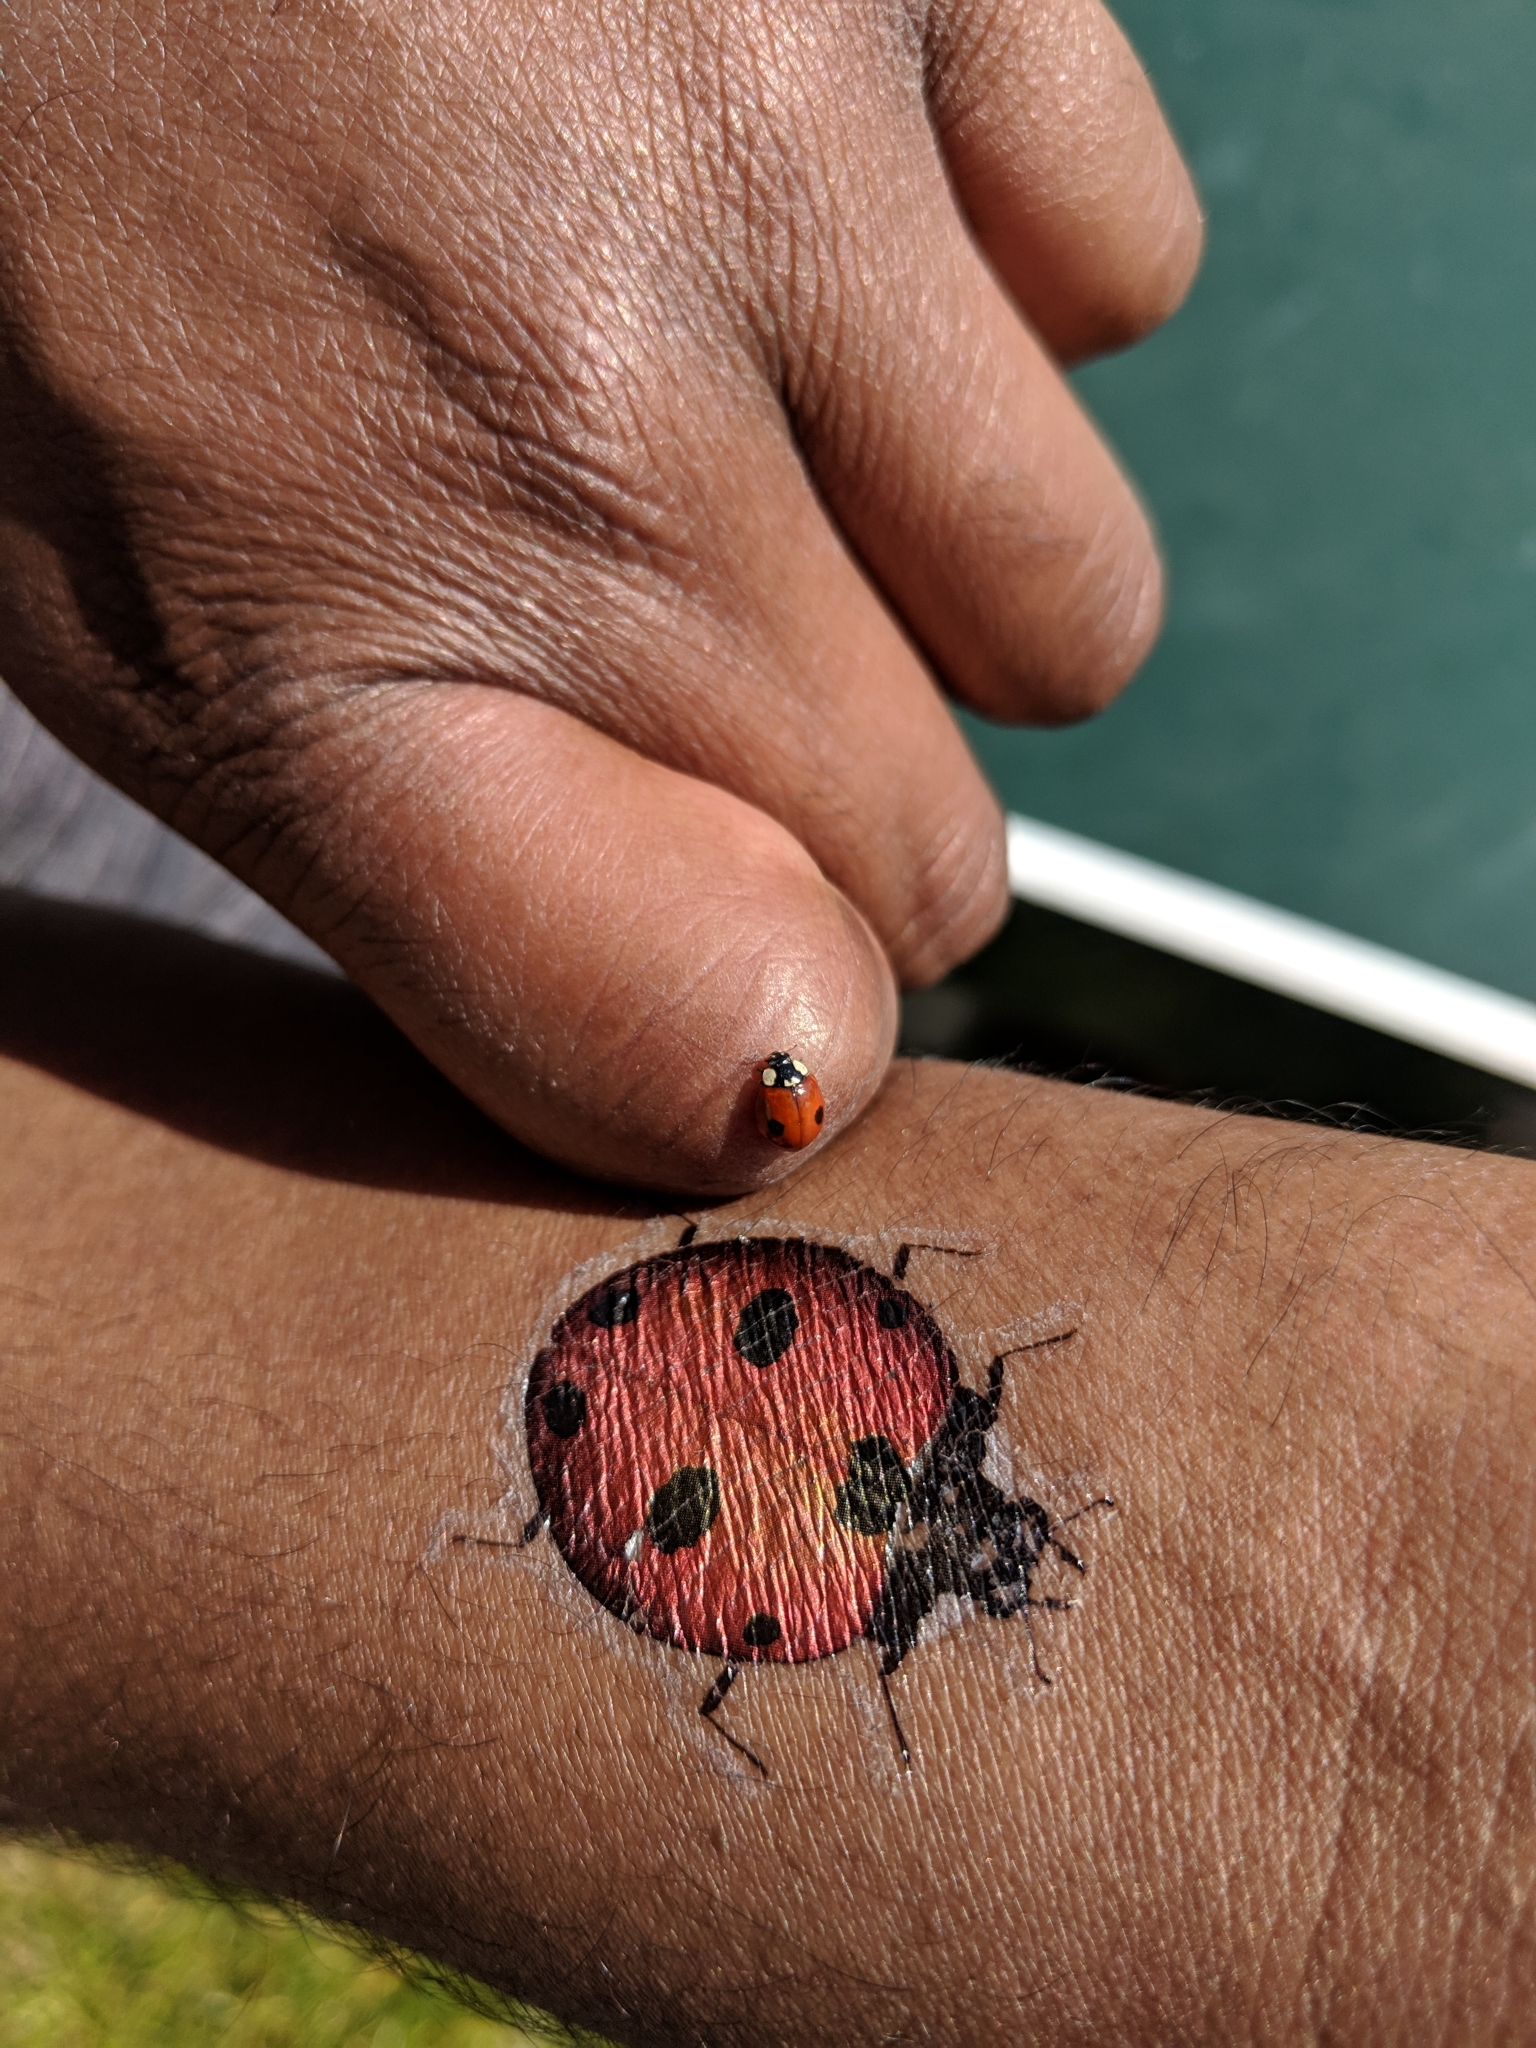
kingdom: Animalia
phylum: Arthropoda
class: Insecta
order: Coleoptera
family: Coccinellidae
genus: Adalia
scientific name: Adalia bipunctata
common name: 2-spot ladybird
